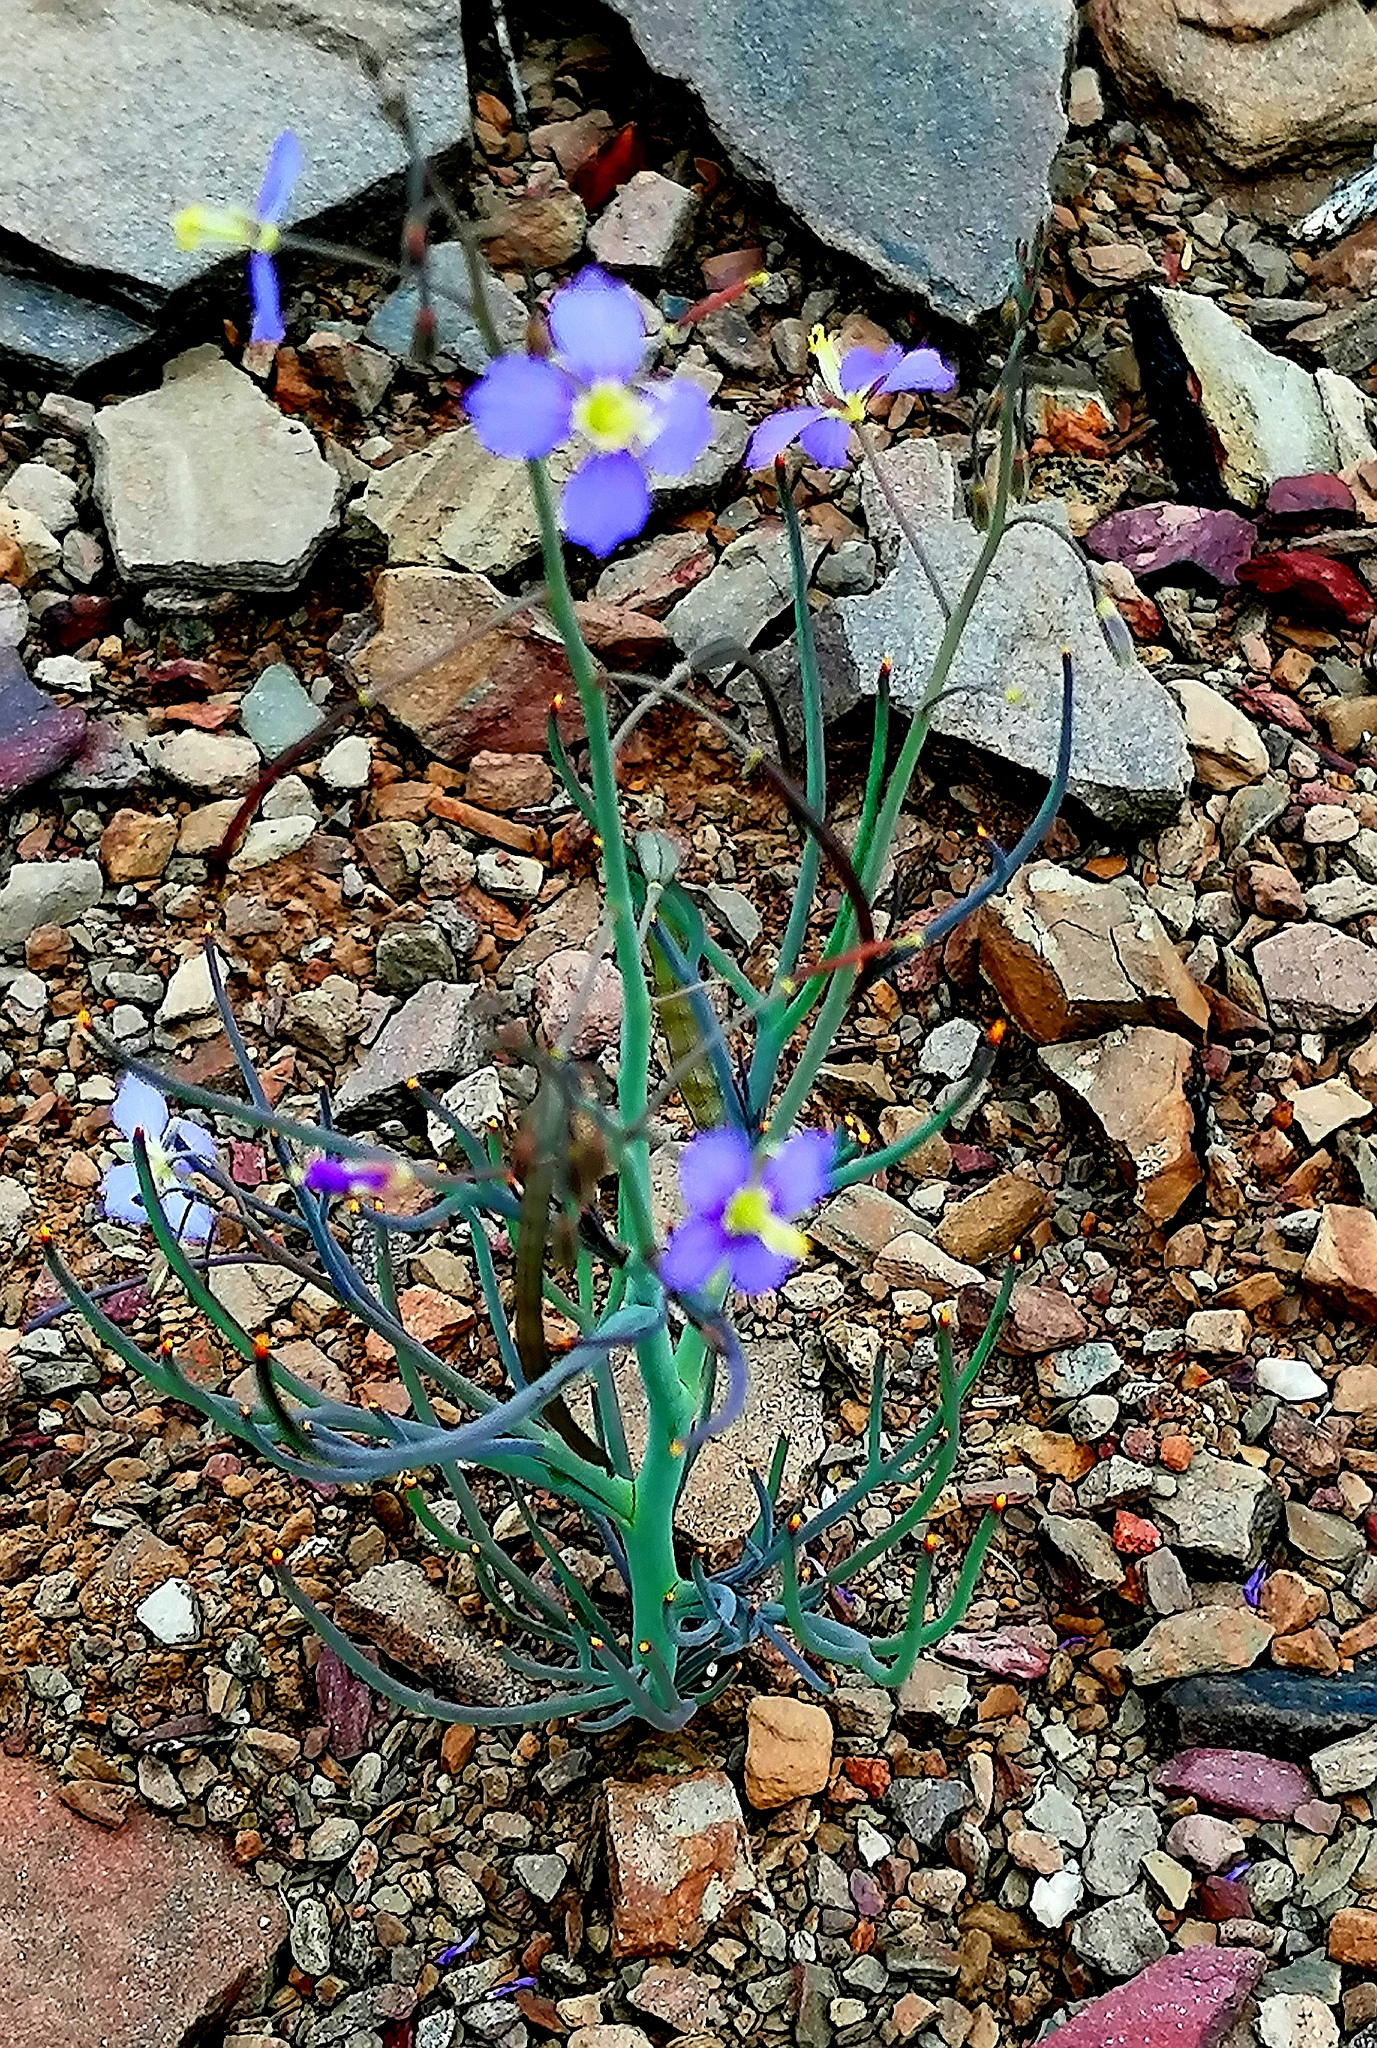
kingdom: Plantae
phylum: Tracheophyta
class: Magnoliopsida
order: Brassicales
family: Brassicaceae
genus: Heliophila
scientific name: Heliophila trifurca
